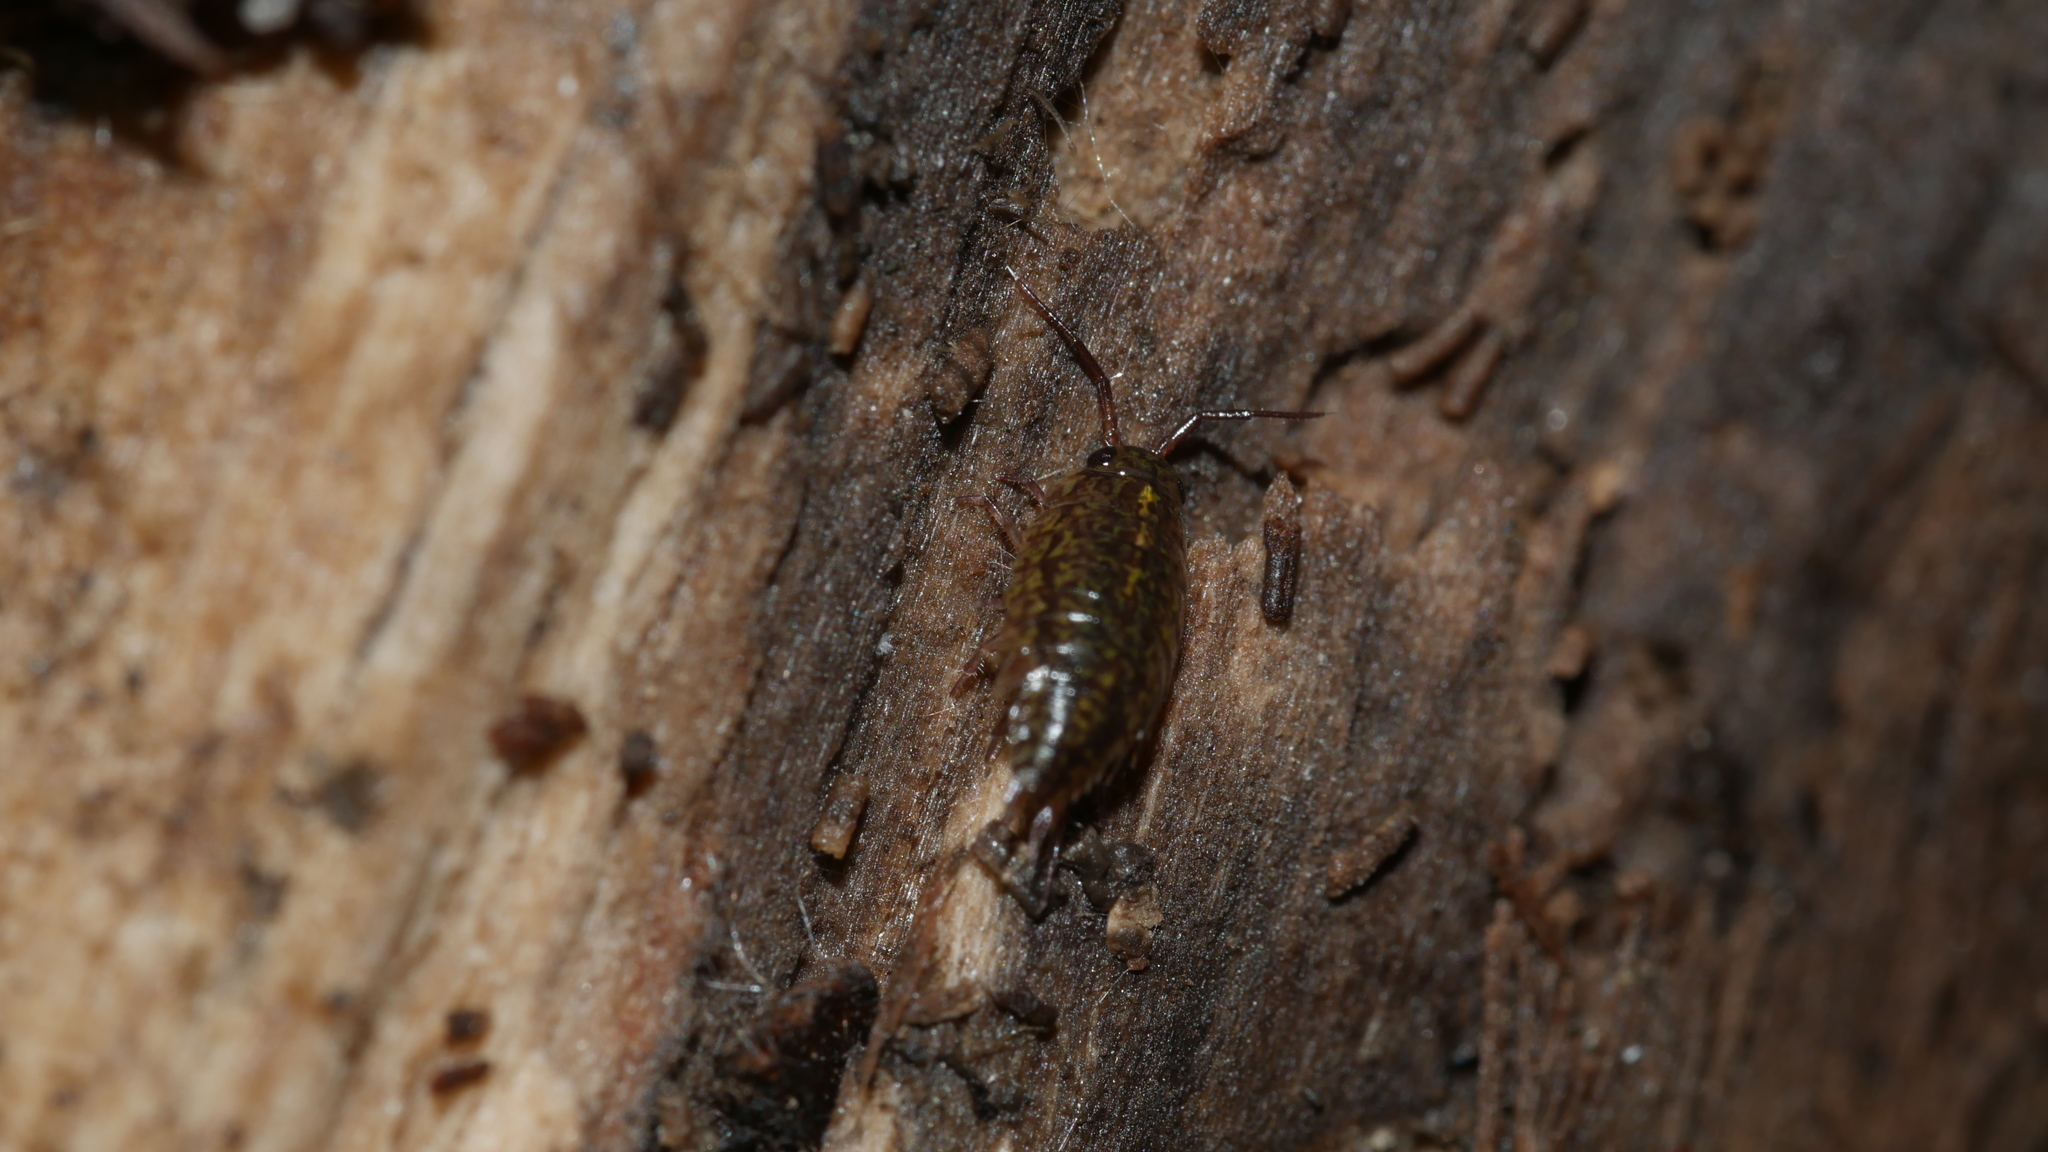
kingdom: Animalia
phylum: Arthropoda
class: Malacostraca
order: Isopoda
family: Ligiidae
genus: Ligidium
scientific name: Ligidium elrodii
